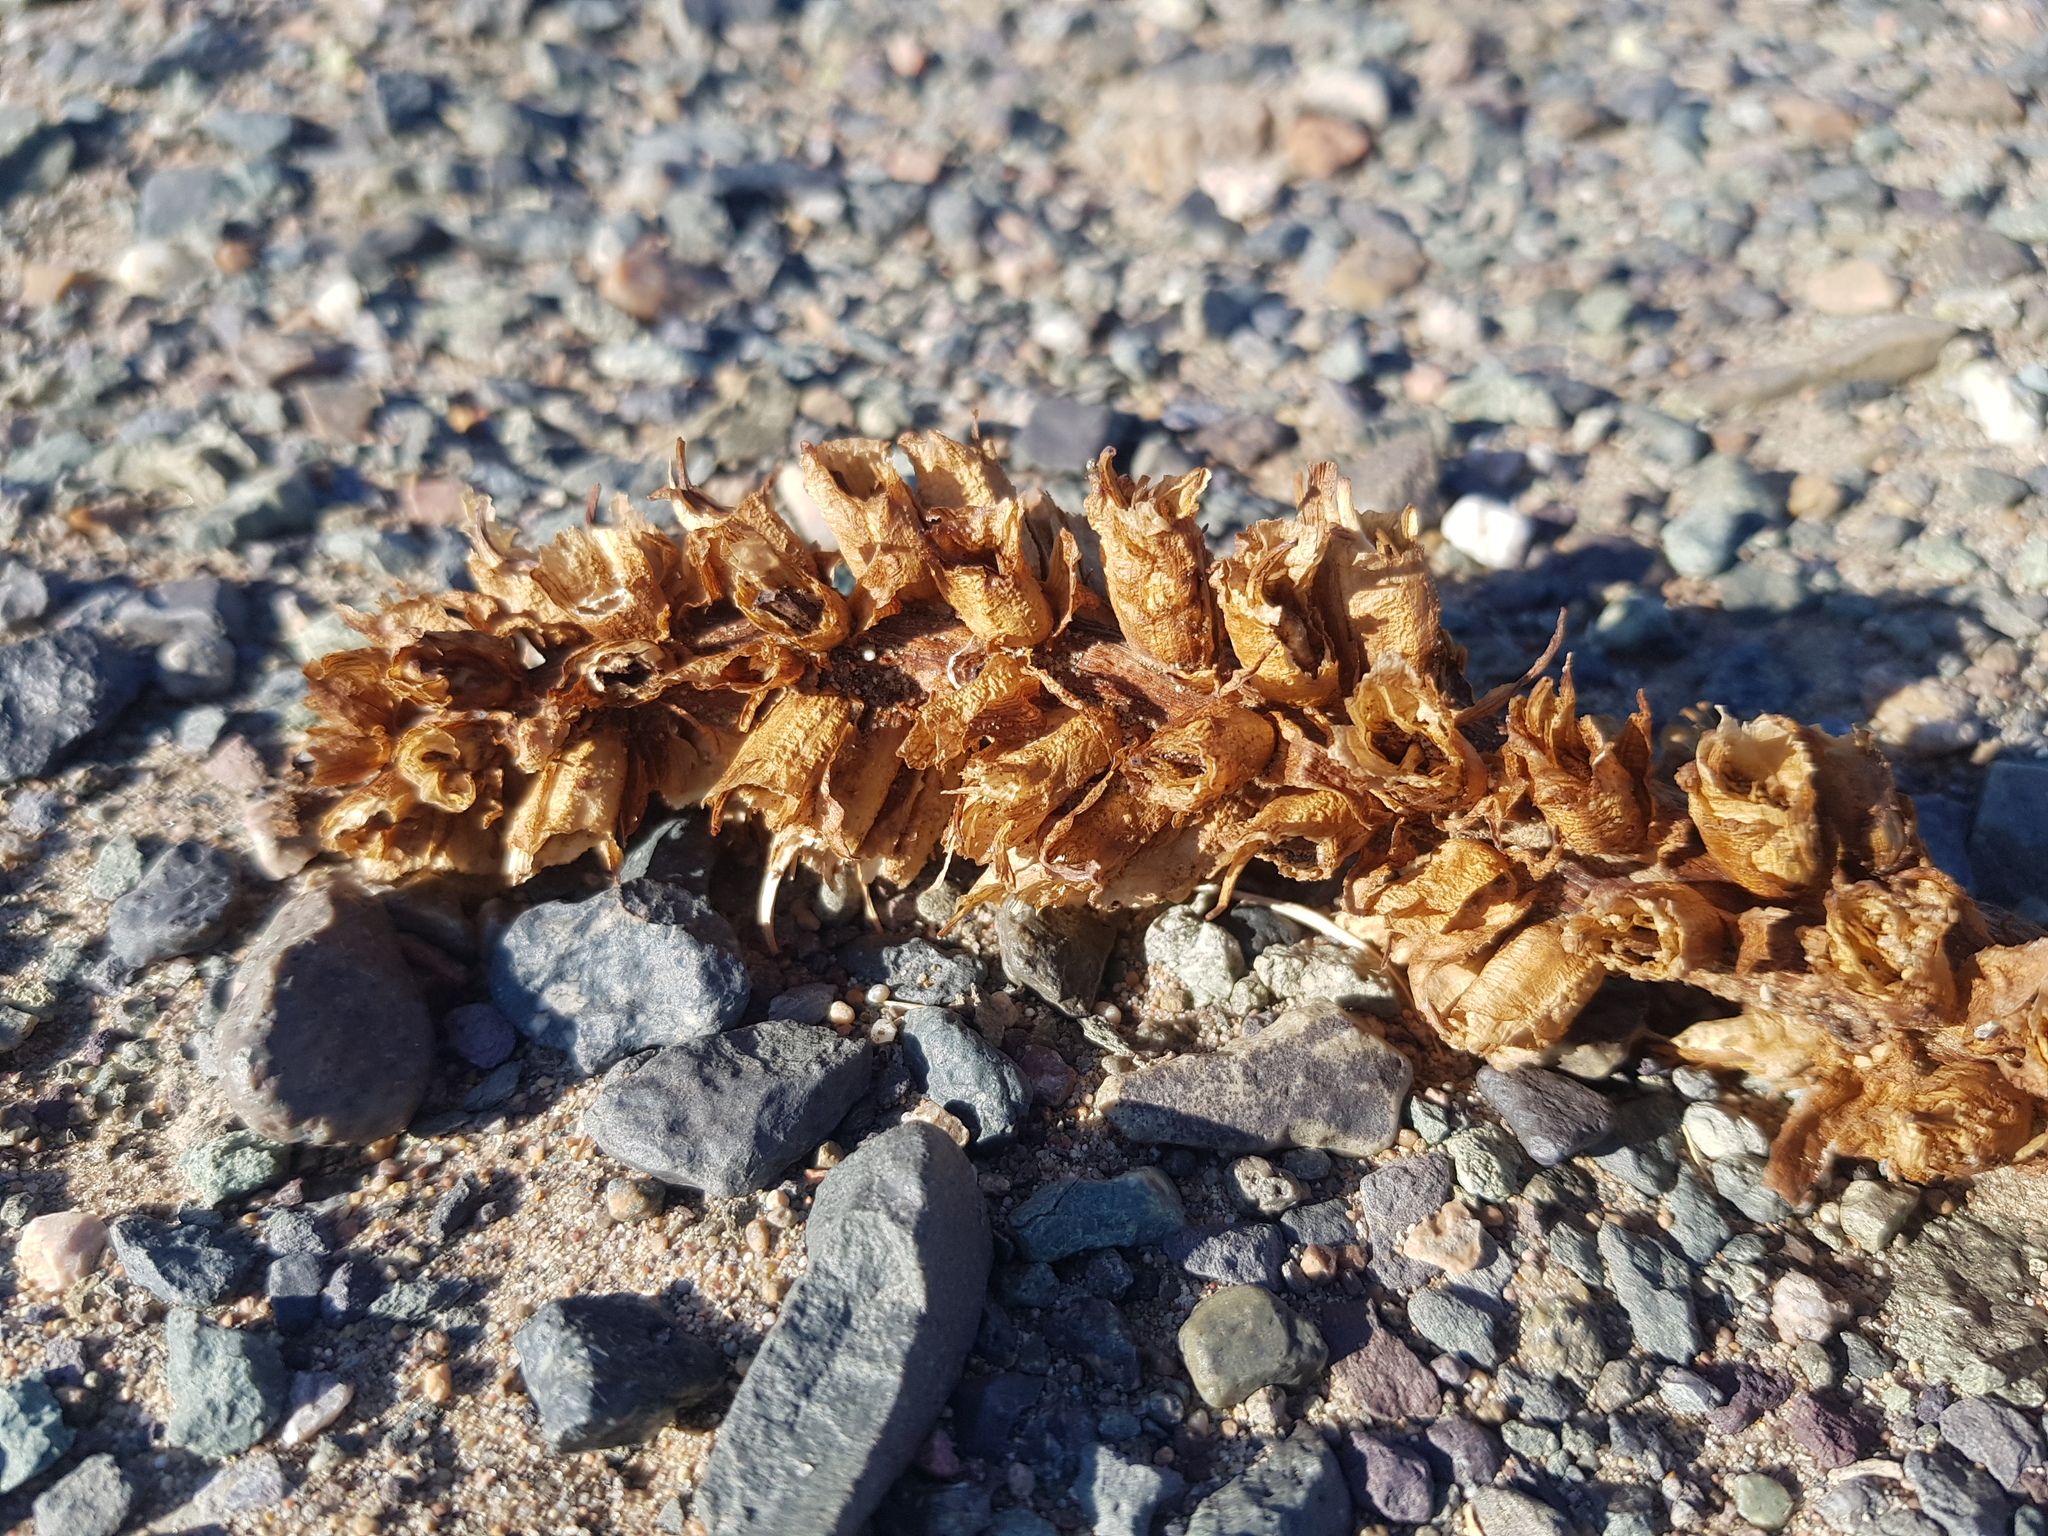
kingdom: Plantae
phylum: Tracheophyta
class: Magnoliopsida
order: Lamiales
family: Orobanchaceae
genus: Cistanche
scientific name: Cistanche deserticola
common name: Desert-broomrape
